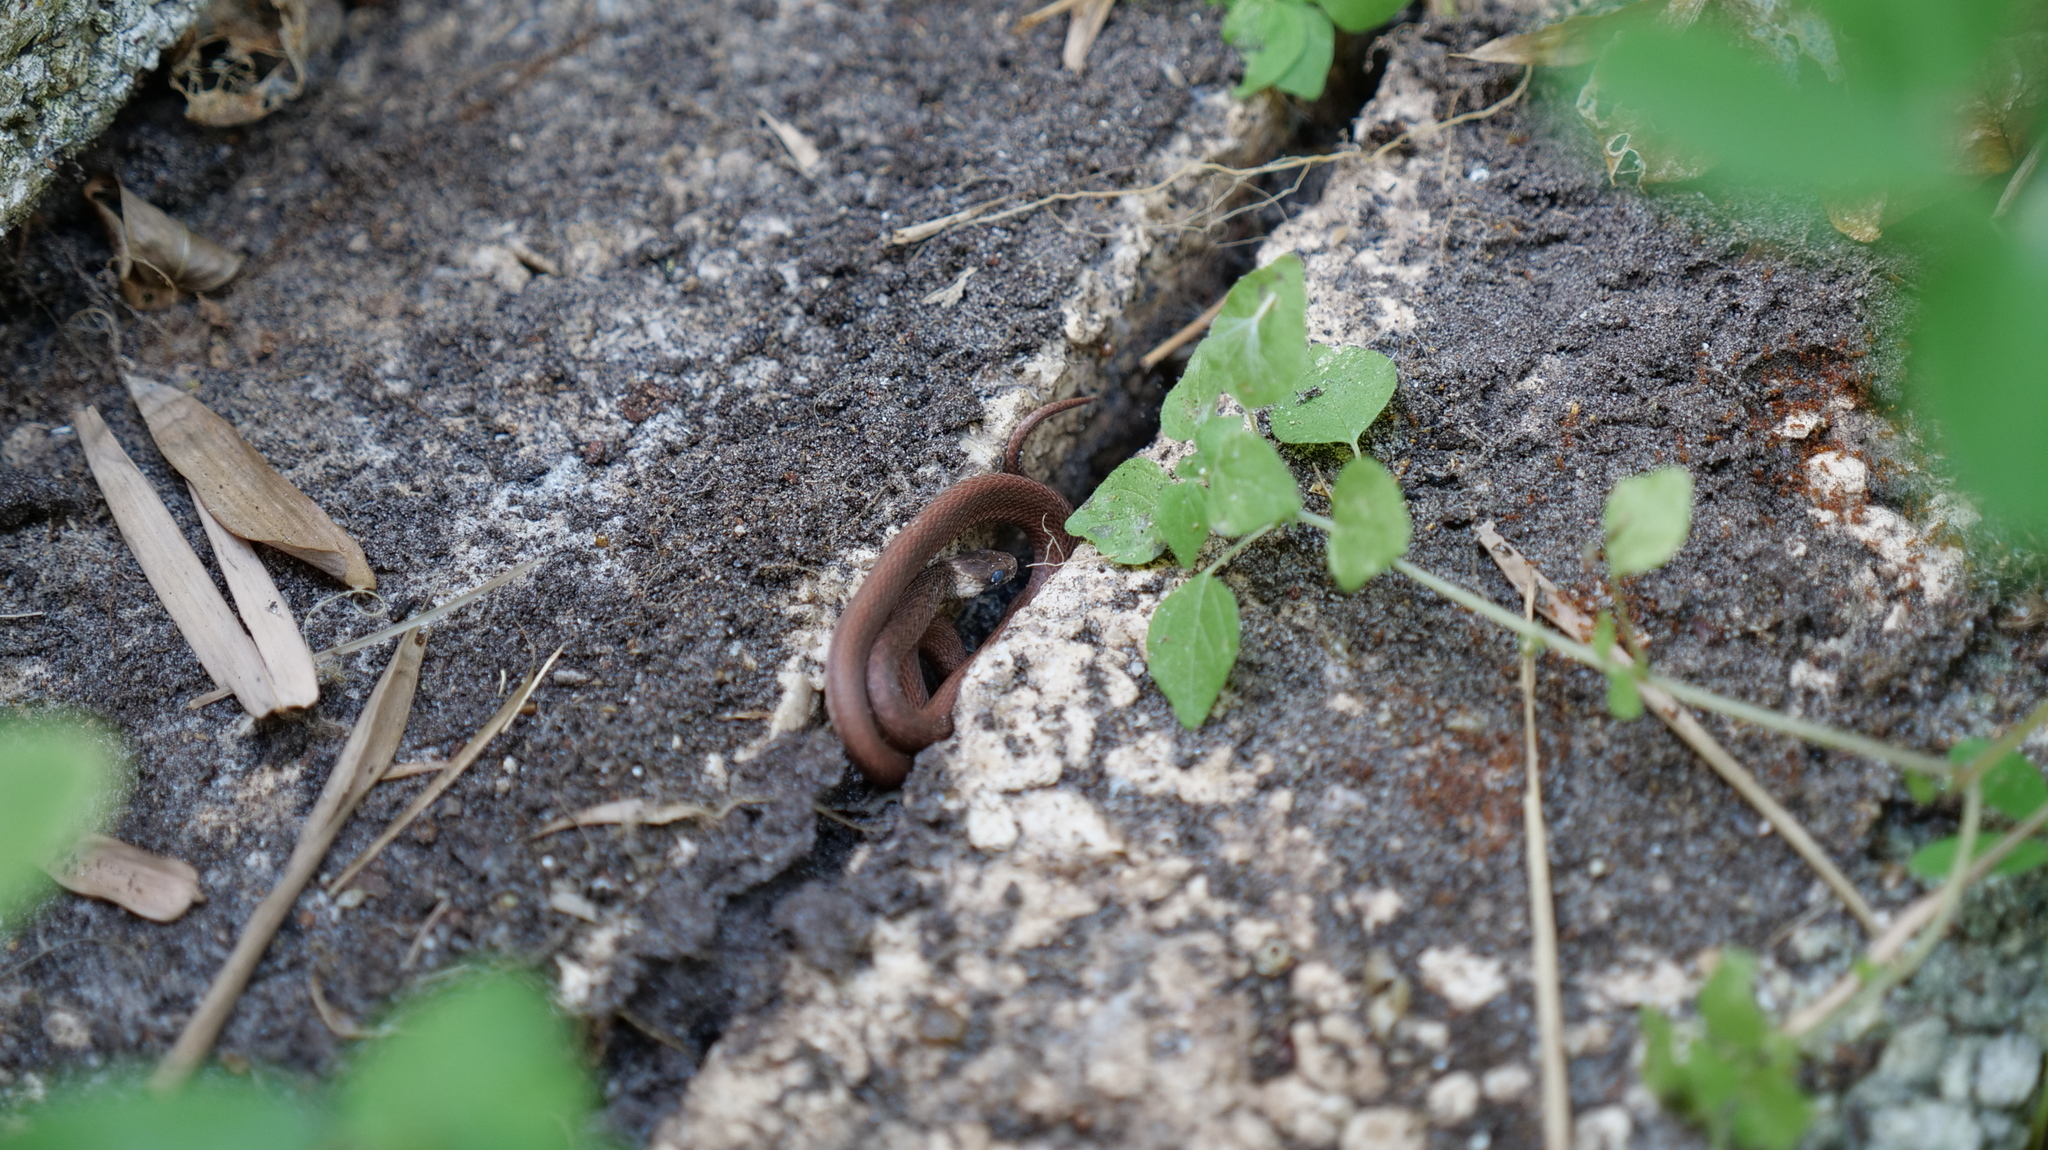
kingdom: Animalia
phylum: Chordata
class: Squamata
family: Colubridae
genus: Storeria
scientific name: Storeria victa
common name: Florida brown snake
